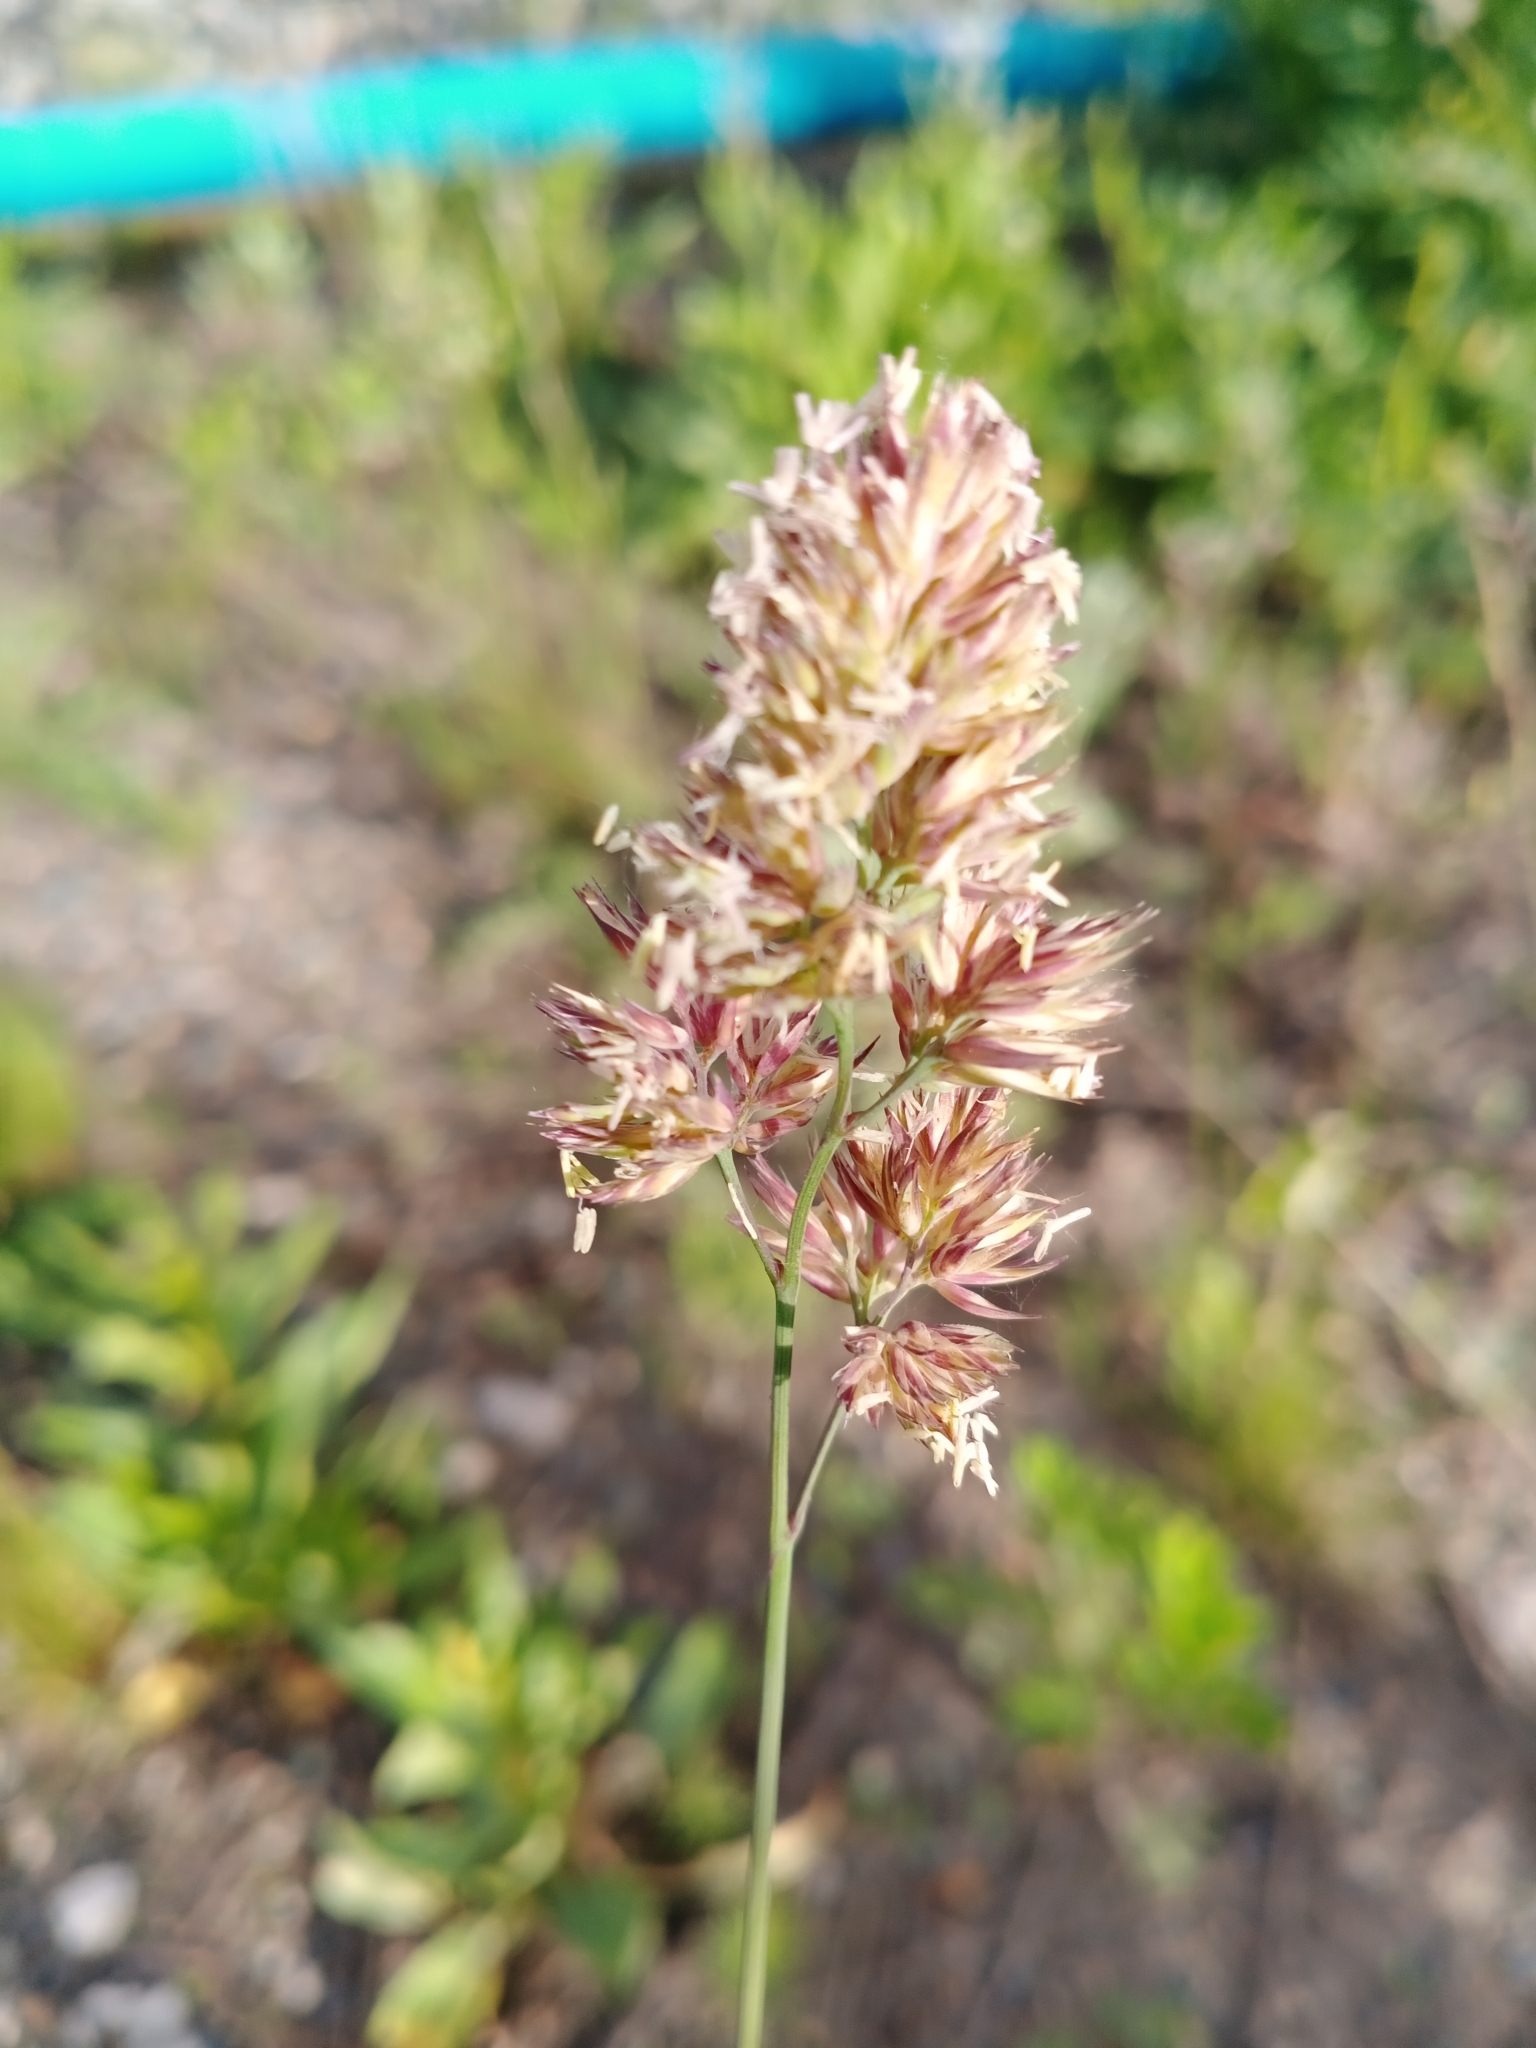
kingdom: Plantae
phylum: Tracheophyta
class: Liliopsida
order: Poales
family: Poaceae
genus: Dactylis
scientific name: Dactylis glomerata
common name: Orchardgrass
